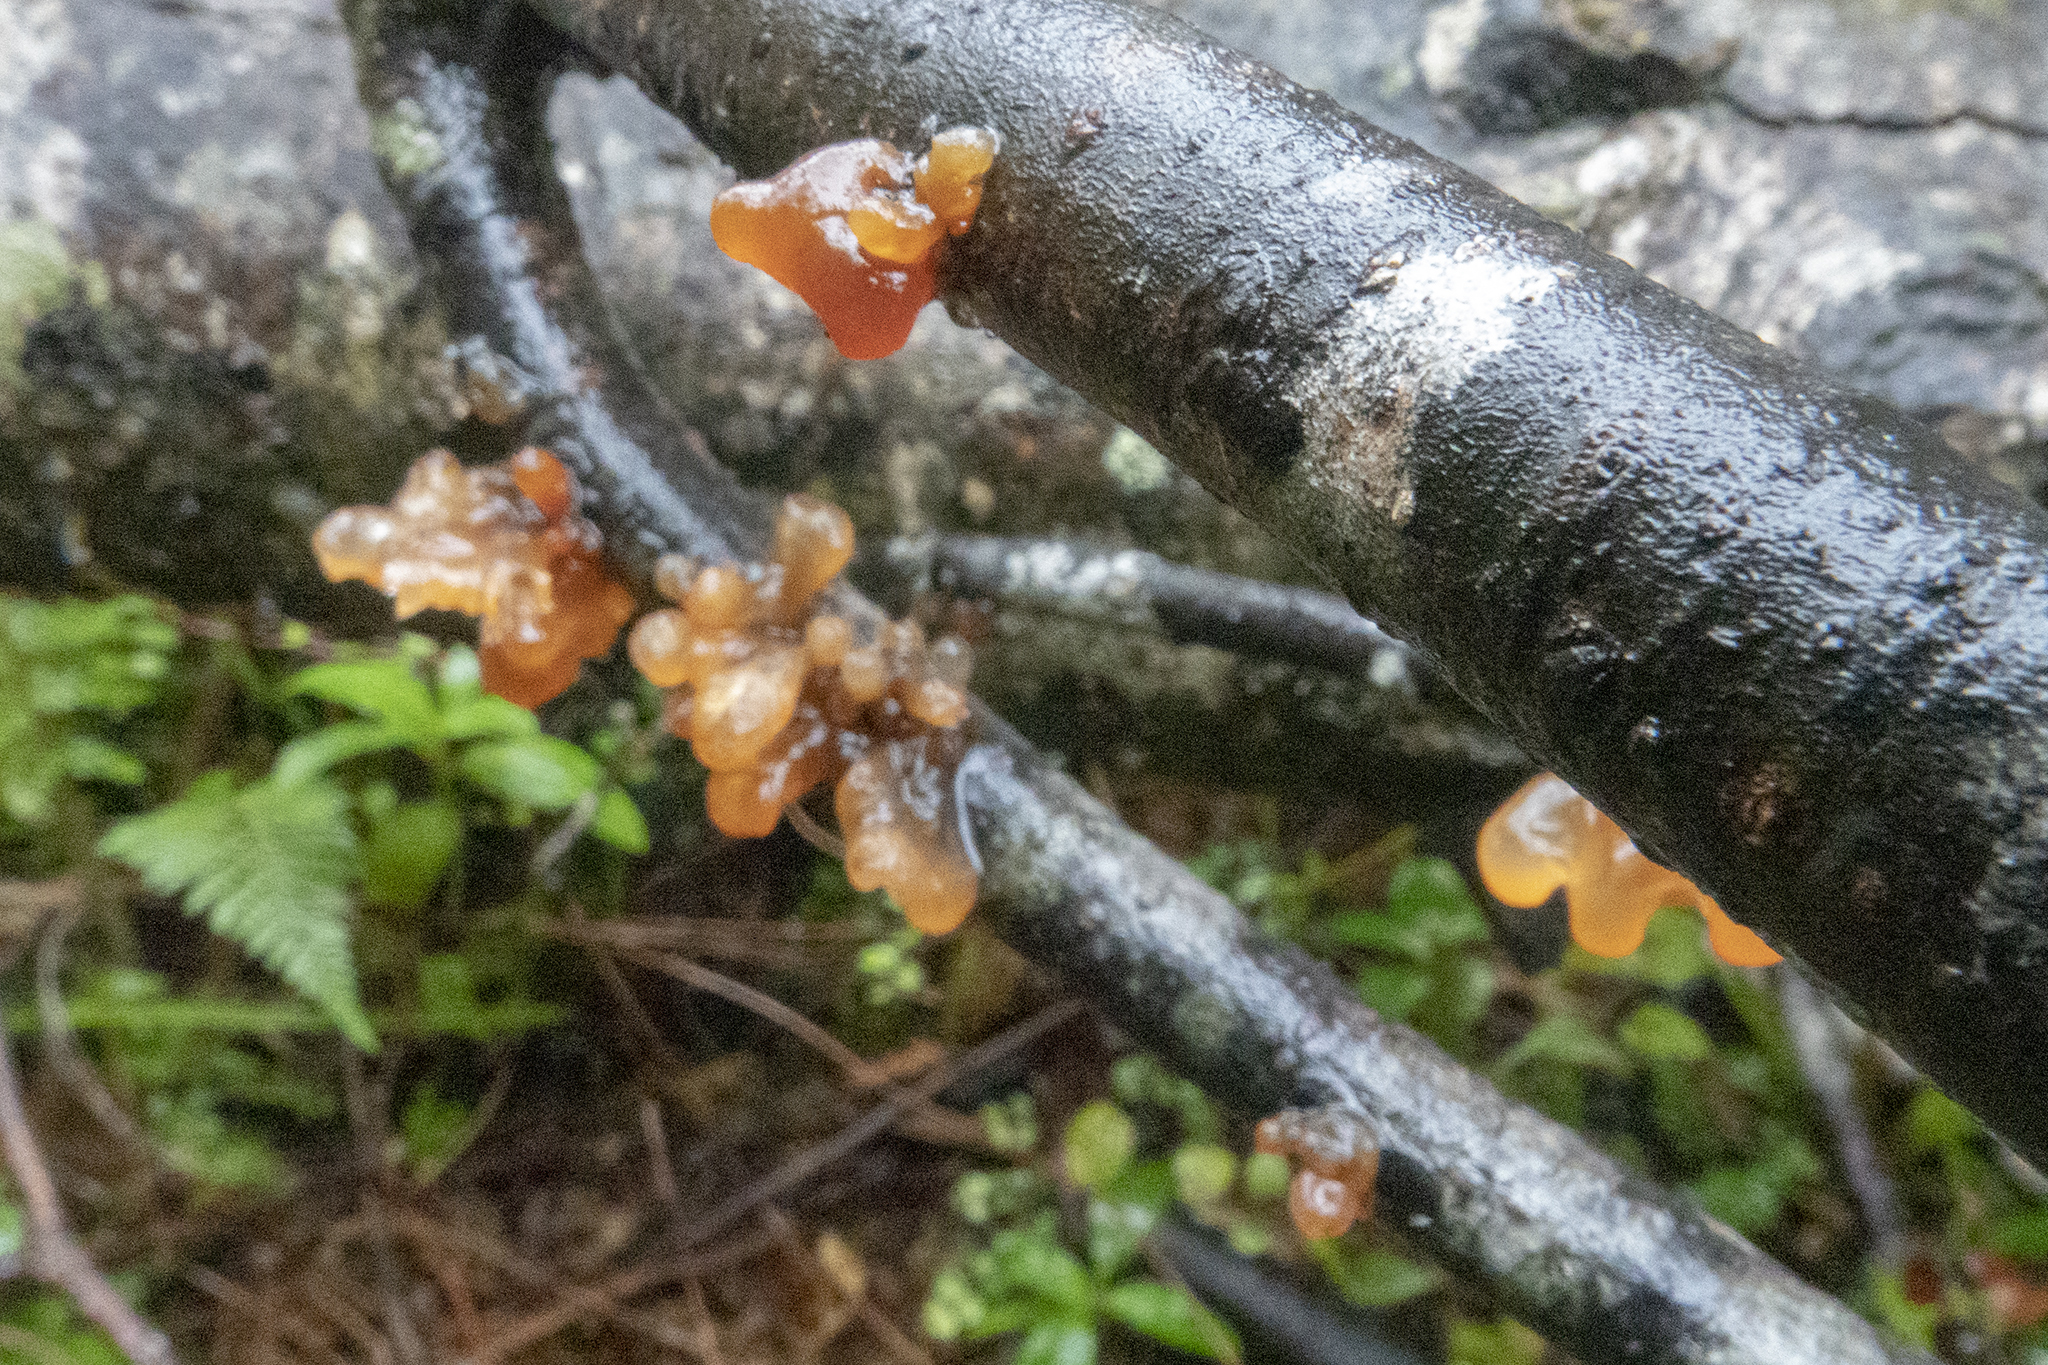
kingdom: Fungi
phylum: Basidiomycota
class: Tremellomycetes
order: Tremellales
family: Tremellaceae
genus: Tremella
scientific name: Tremella vesiculosa
